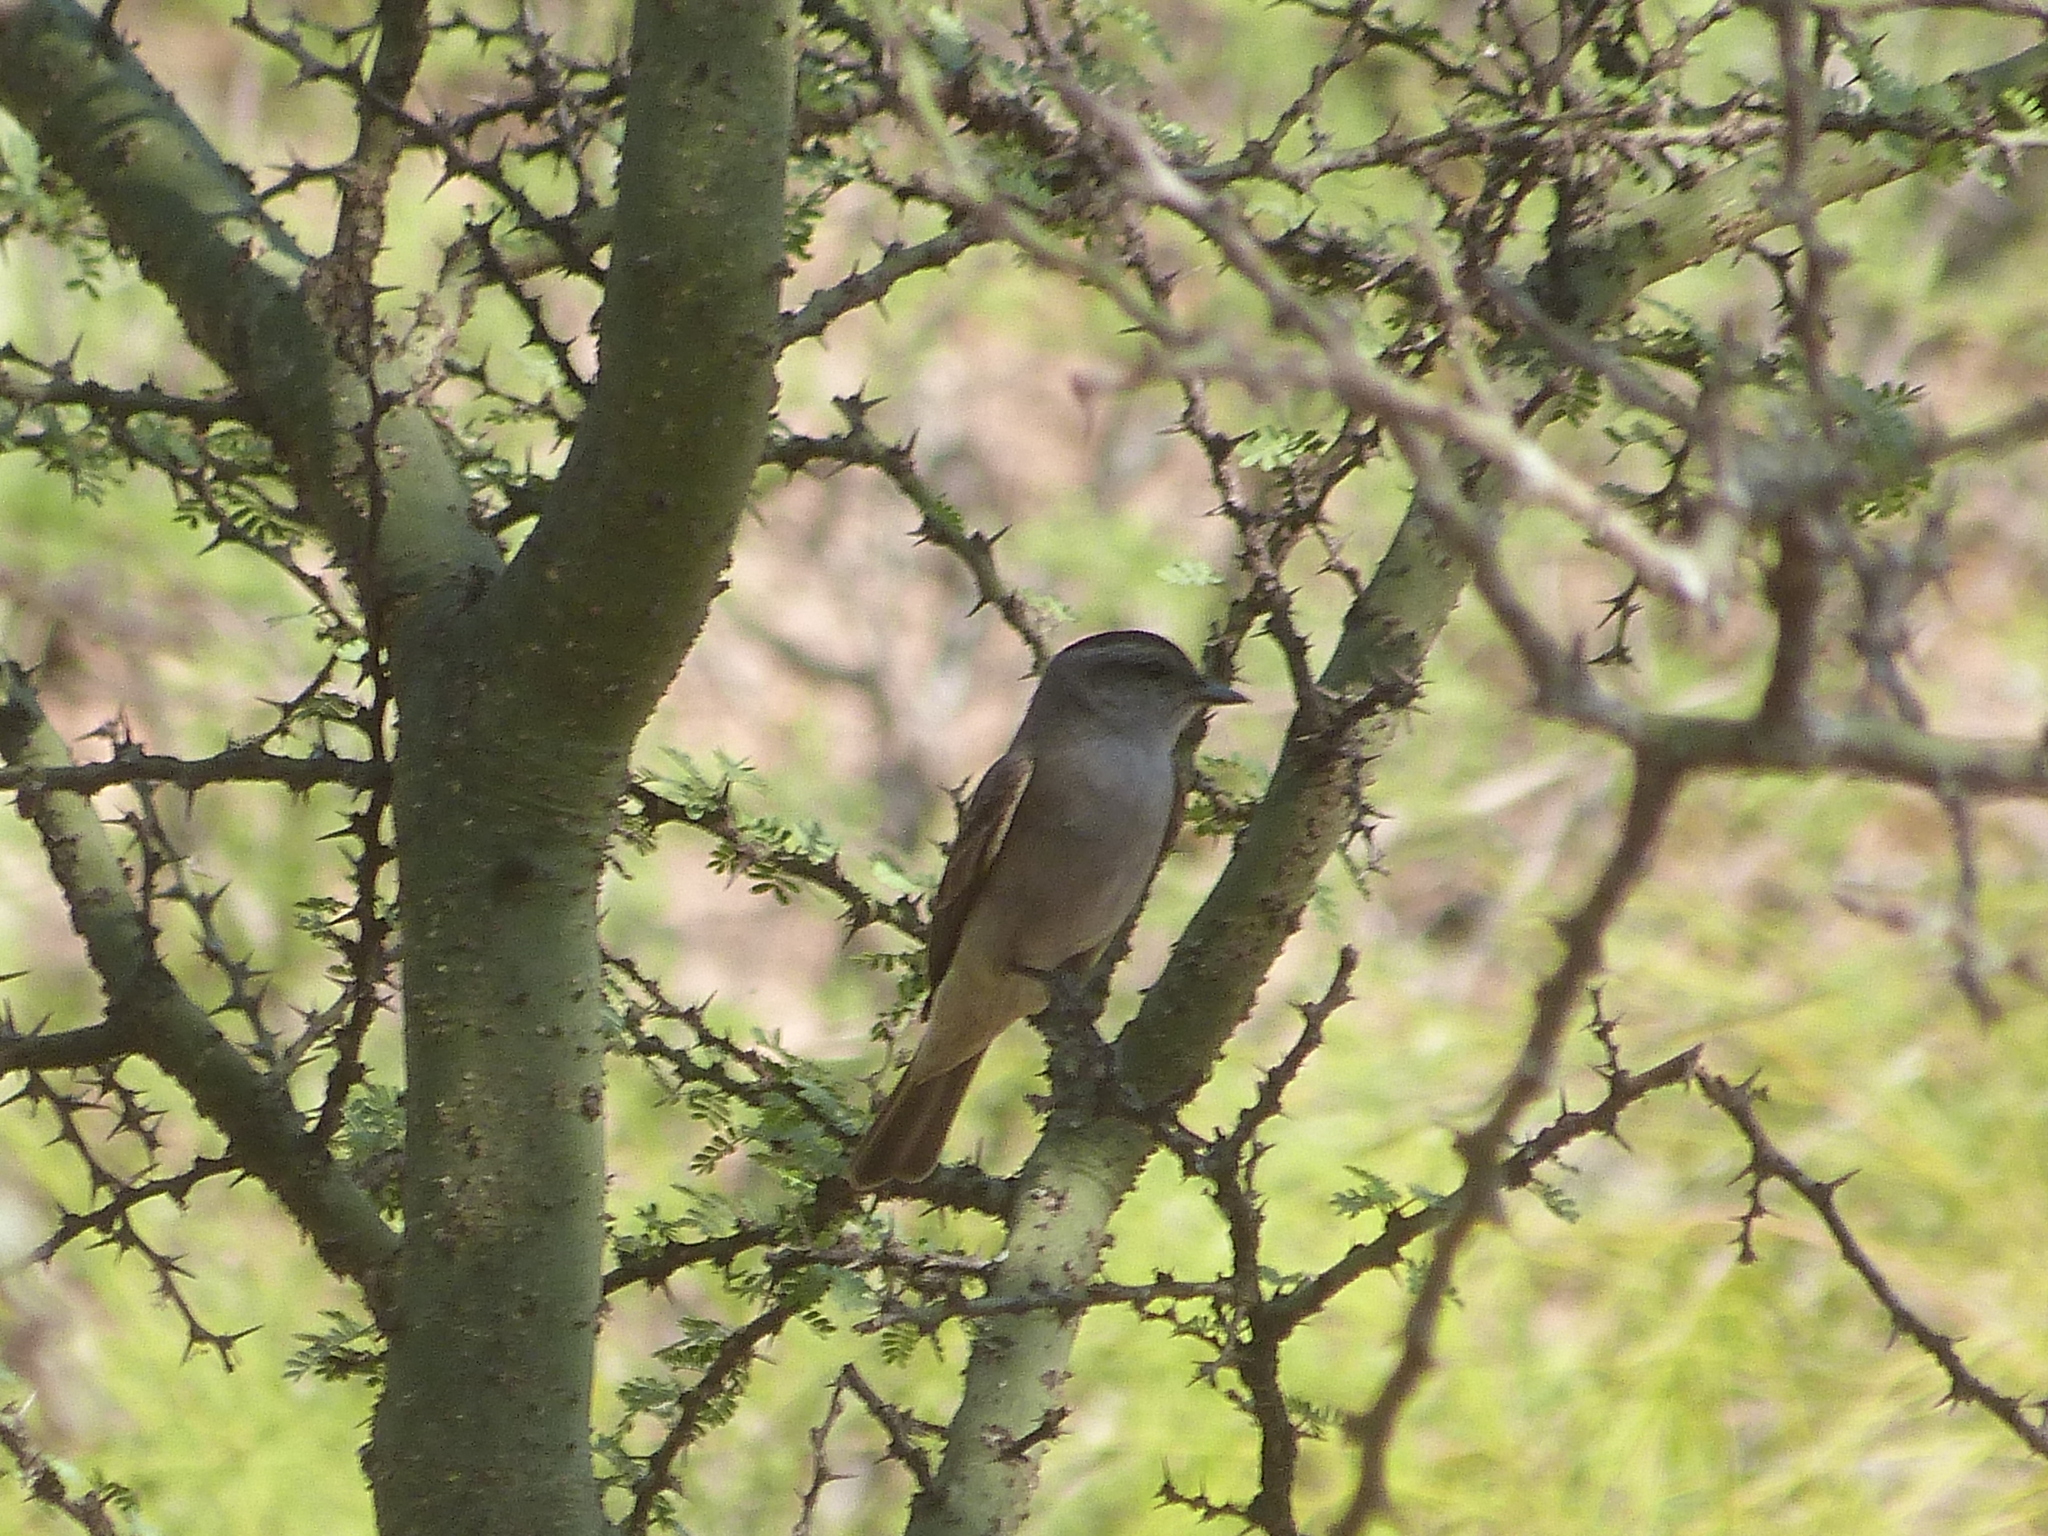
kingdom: Animalia
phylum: Chordata
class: Aves
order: Passeriformes
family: Tyrannidae
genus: Empidonomus
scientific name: Empidonomus aurantioatrocristatus
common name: Crowned slaty flycatcher
